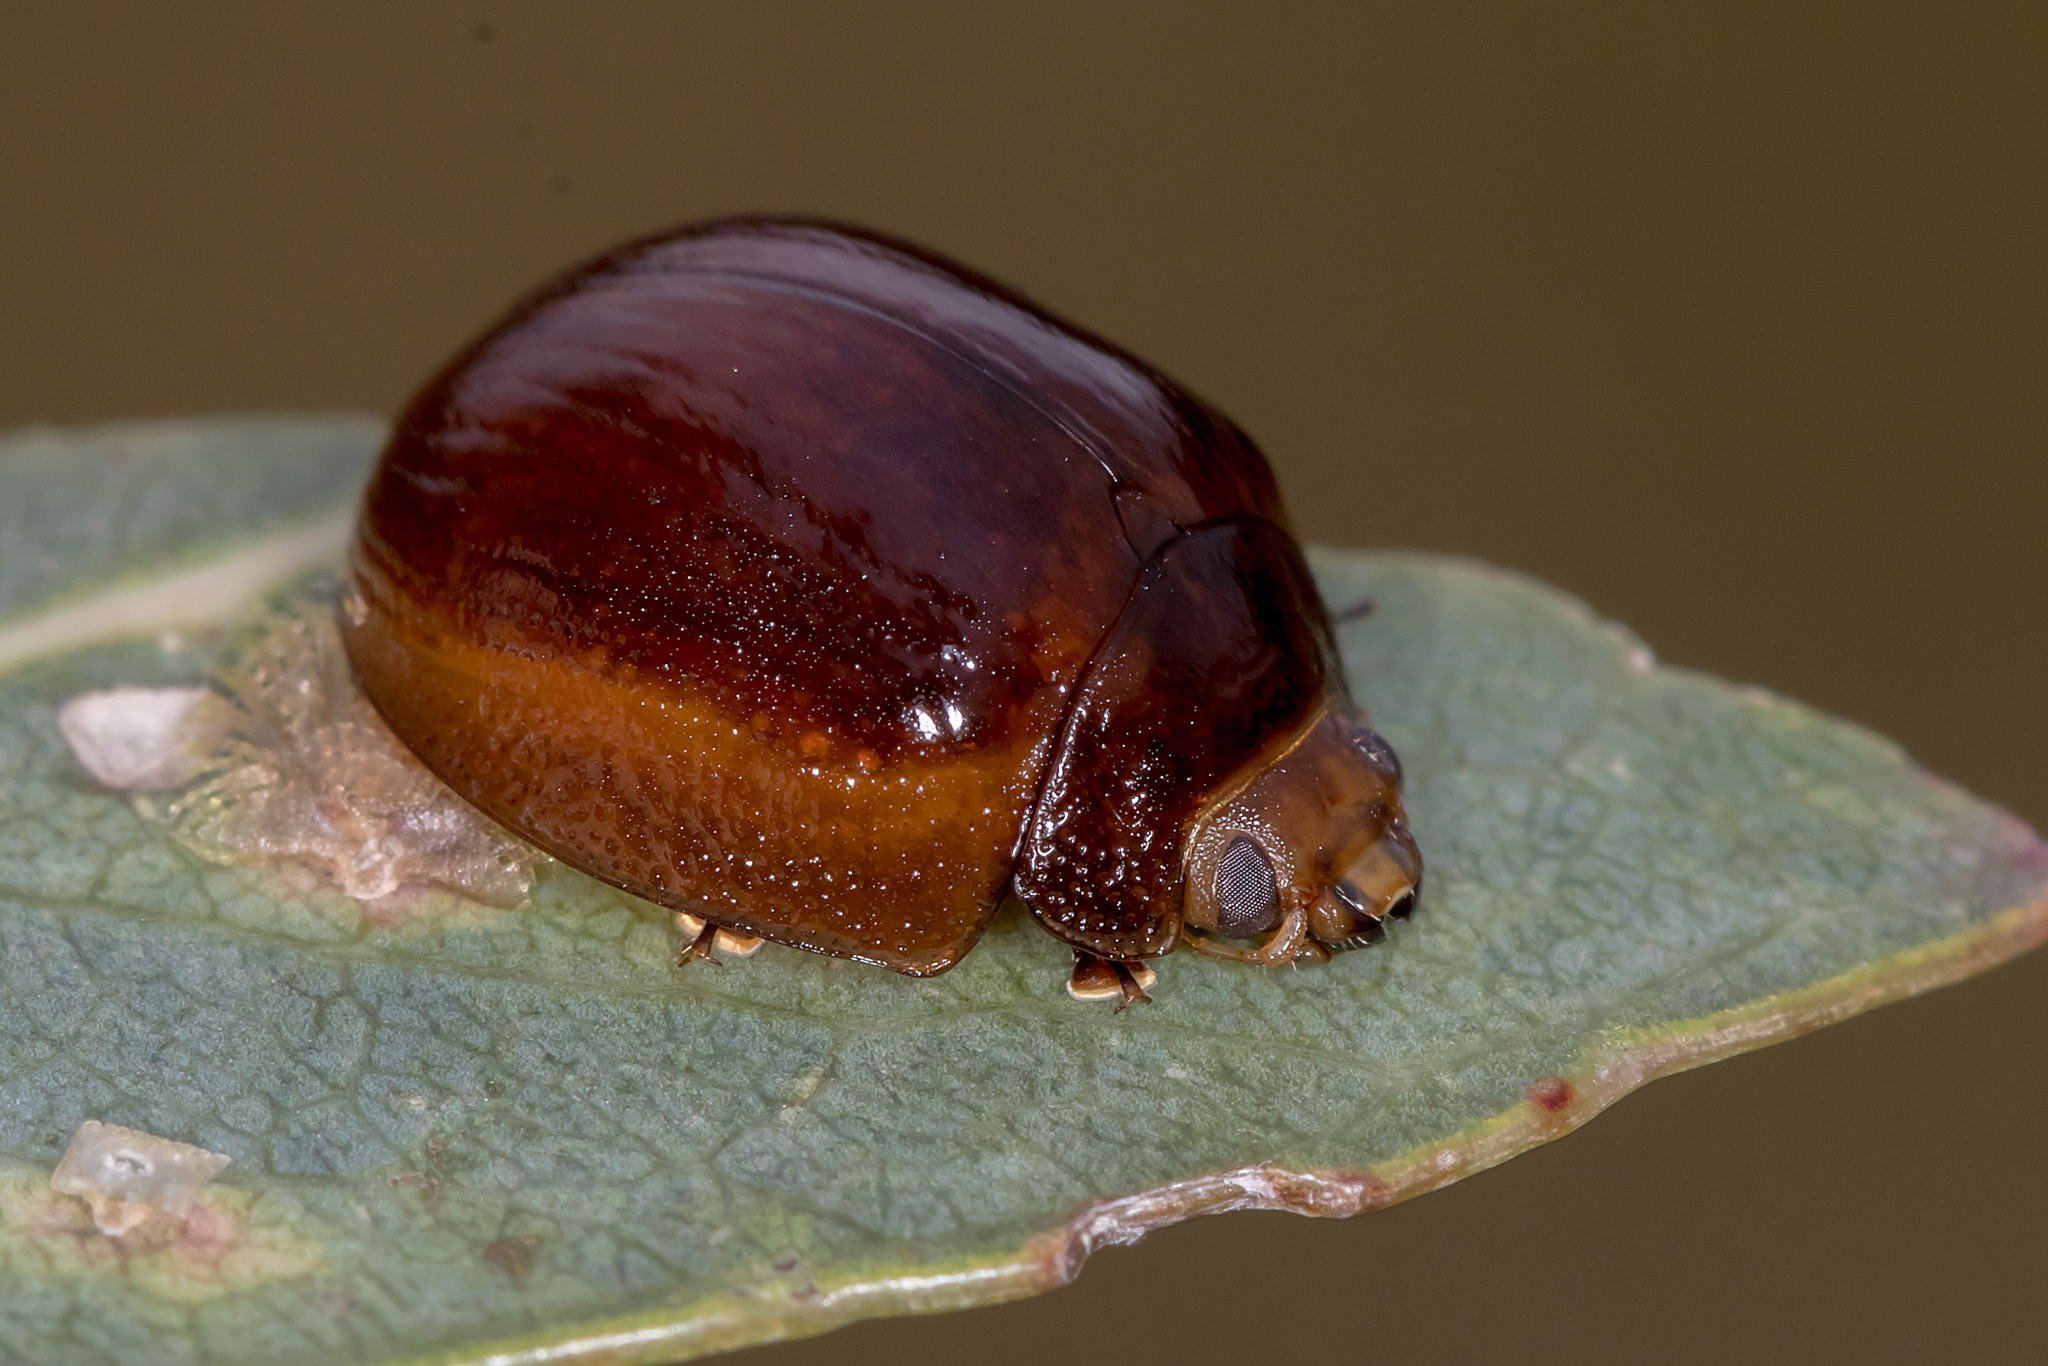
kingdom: Animalia
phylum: Arthropoda
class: Insecta
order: Coleoptera
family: Chrysomelidae
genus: Paropsisterna
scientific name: Paropsisterna cloelia
